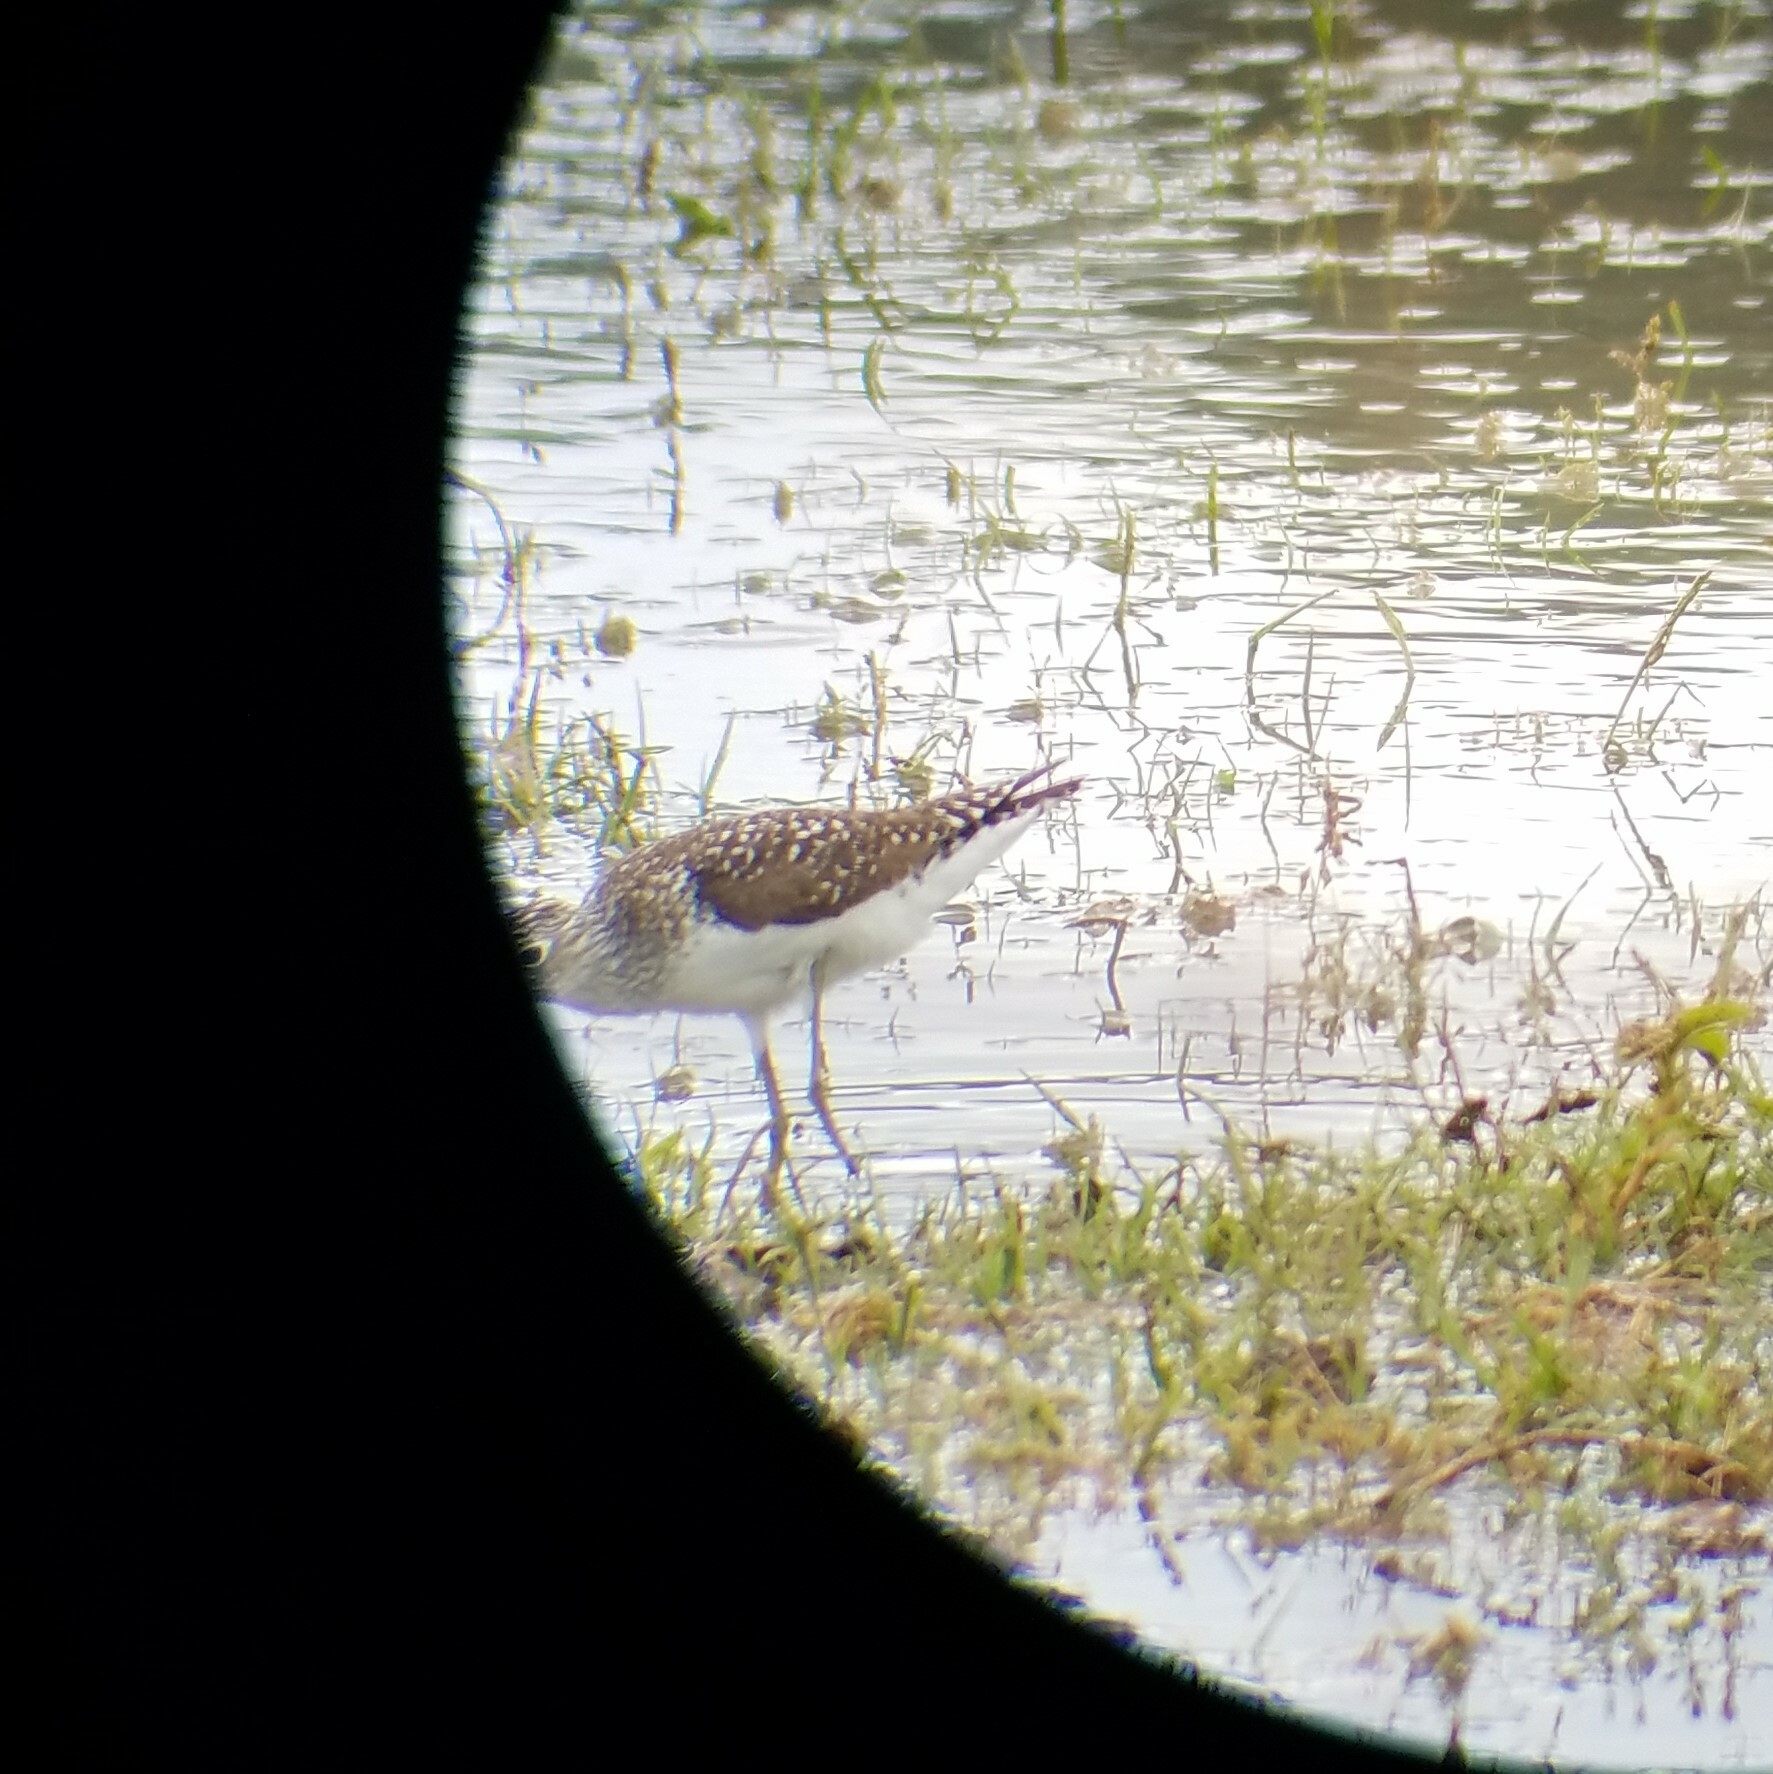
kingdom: Animalia
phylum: Chordata
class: Aves
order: Charadriiformes
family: Scolopacidae
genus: Tringa
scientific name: Tringa solitaria
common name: Solitary sandpiper
